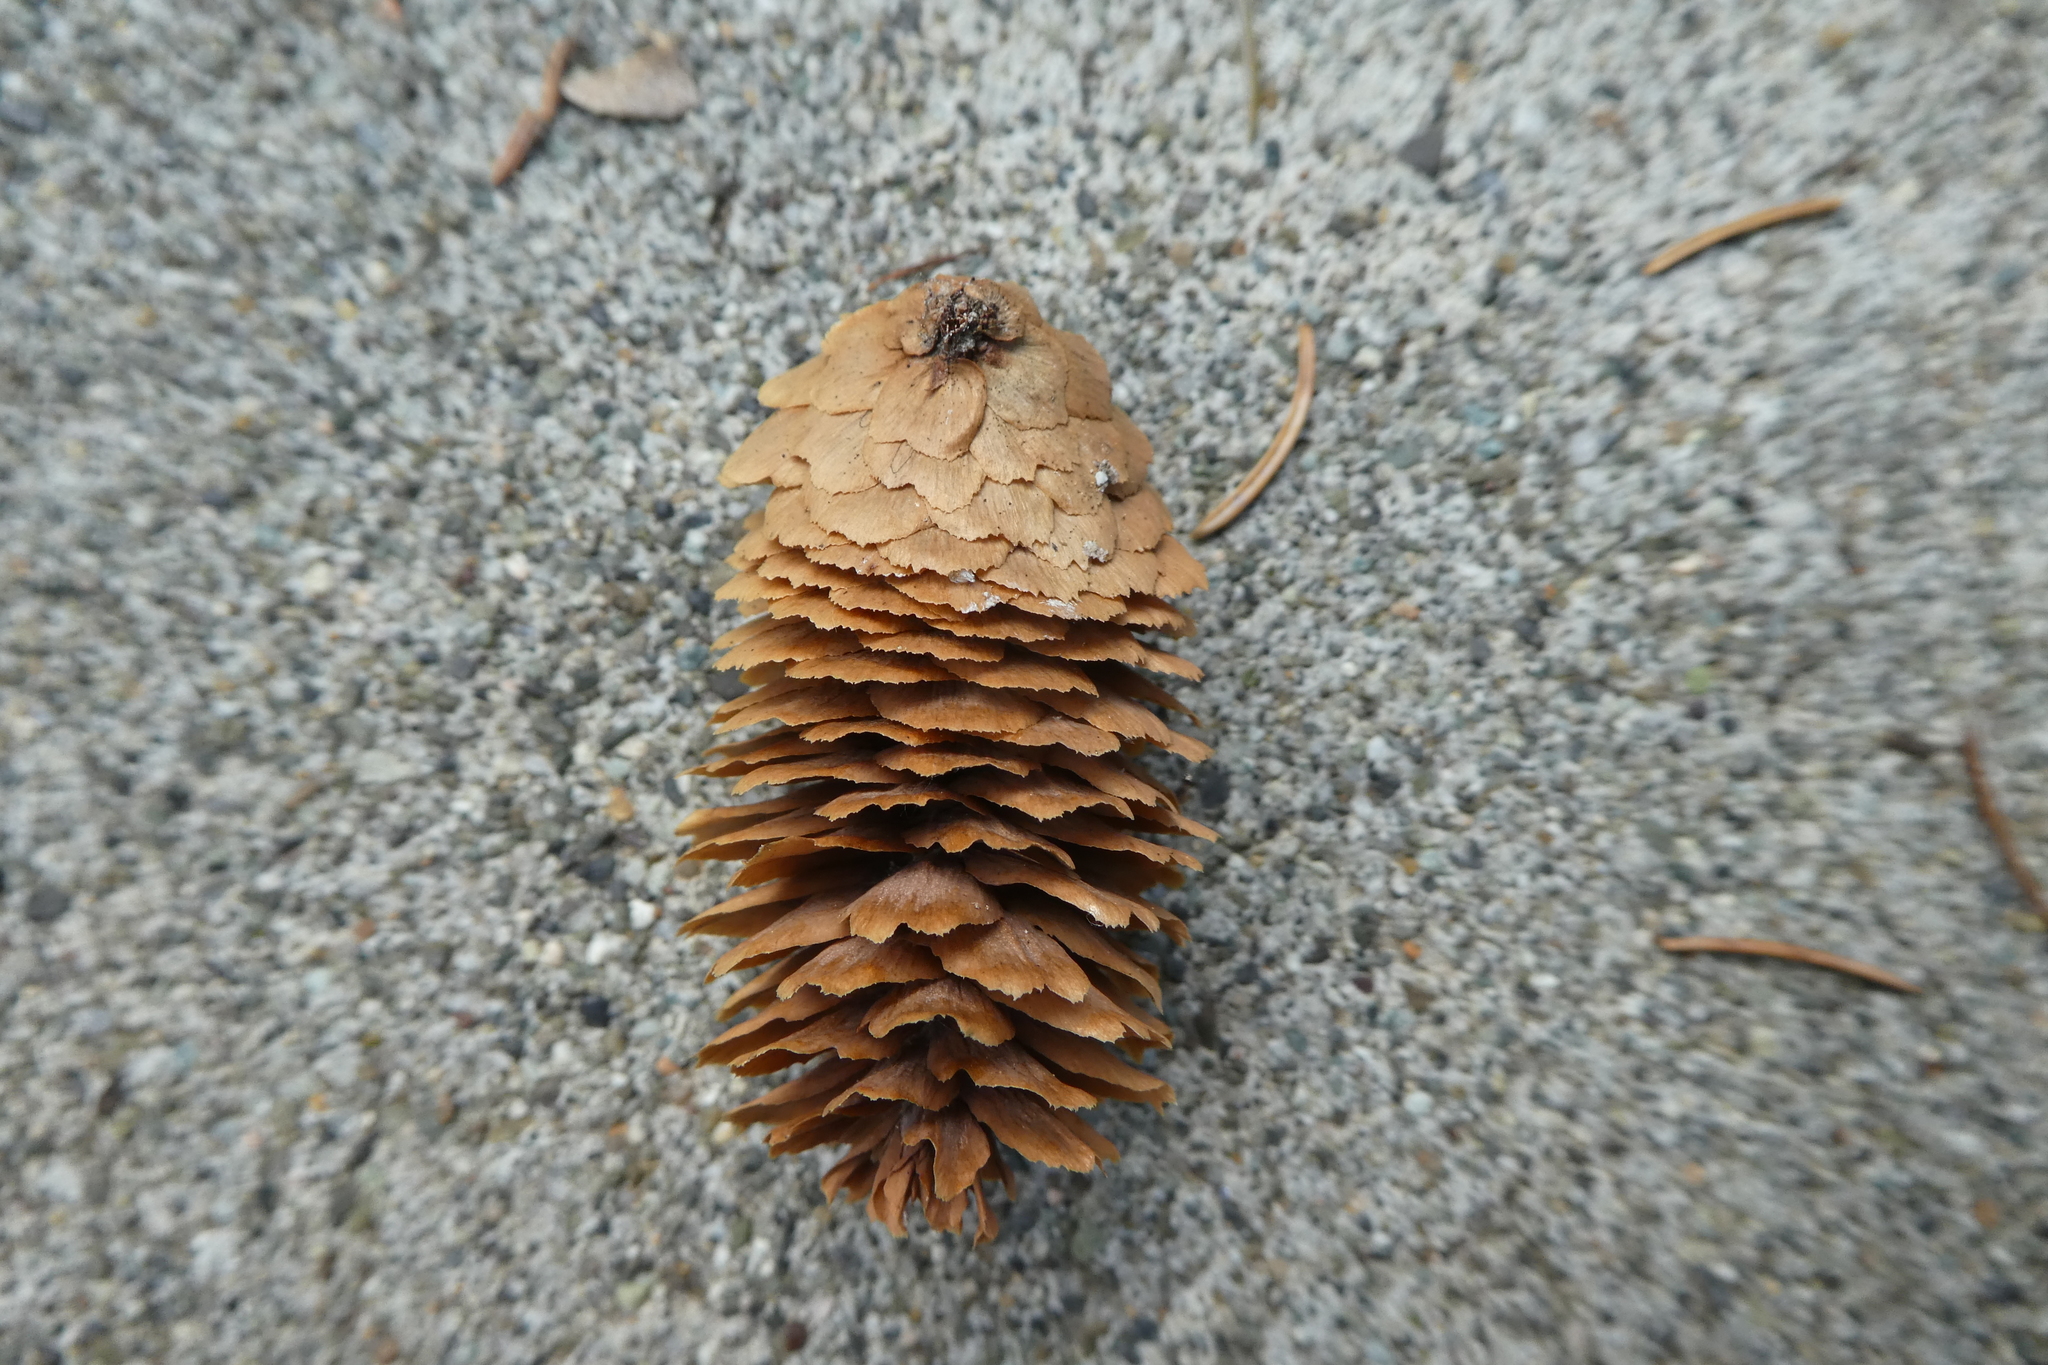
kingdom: Plantae
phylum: Tracheophyta
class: Pinopsida
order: Pinales
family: Pinaceae
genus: Picea
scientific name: Picea sitchensis
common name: Sitka spruce
